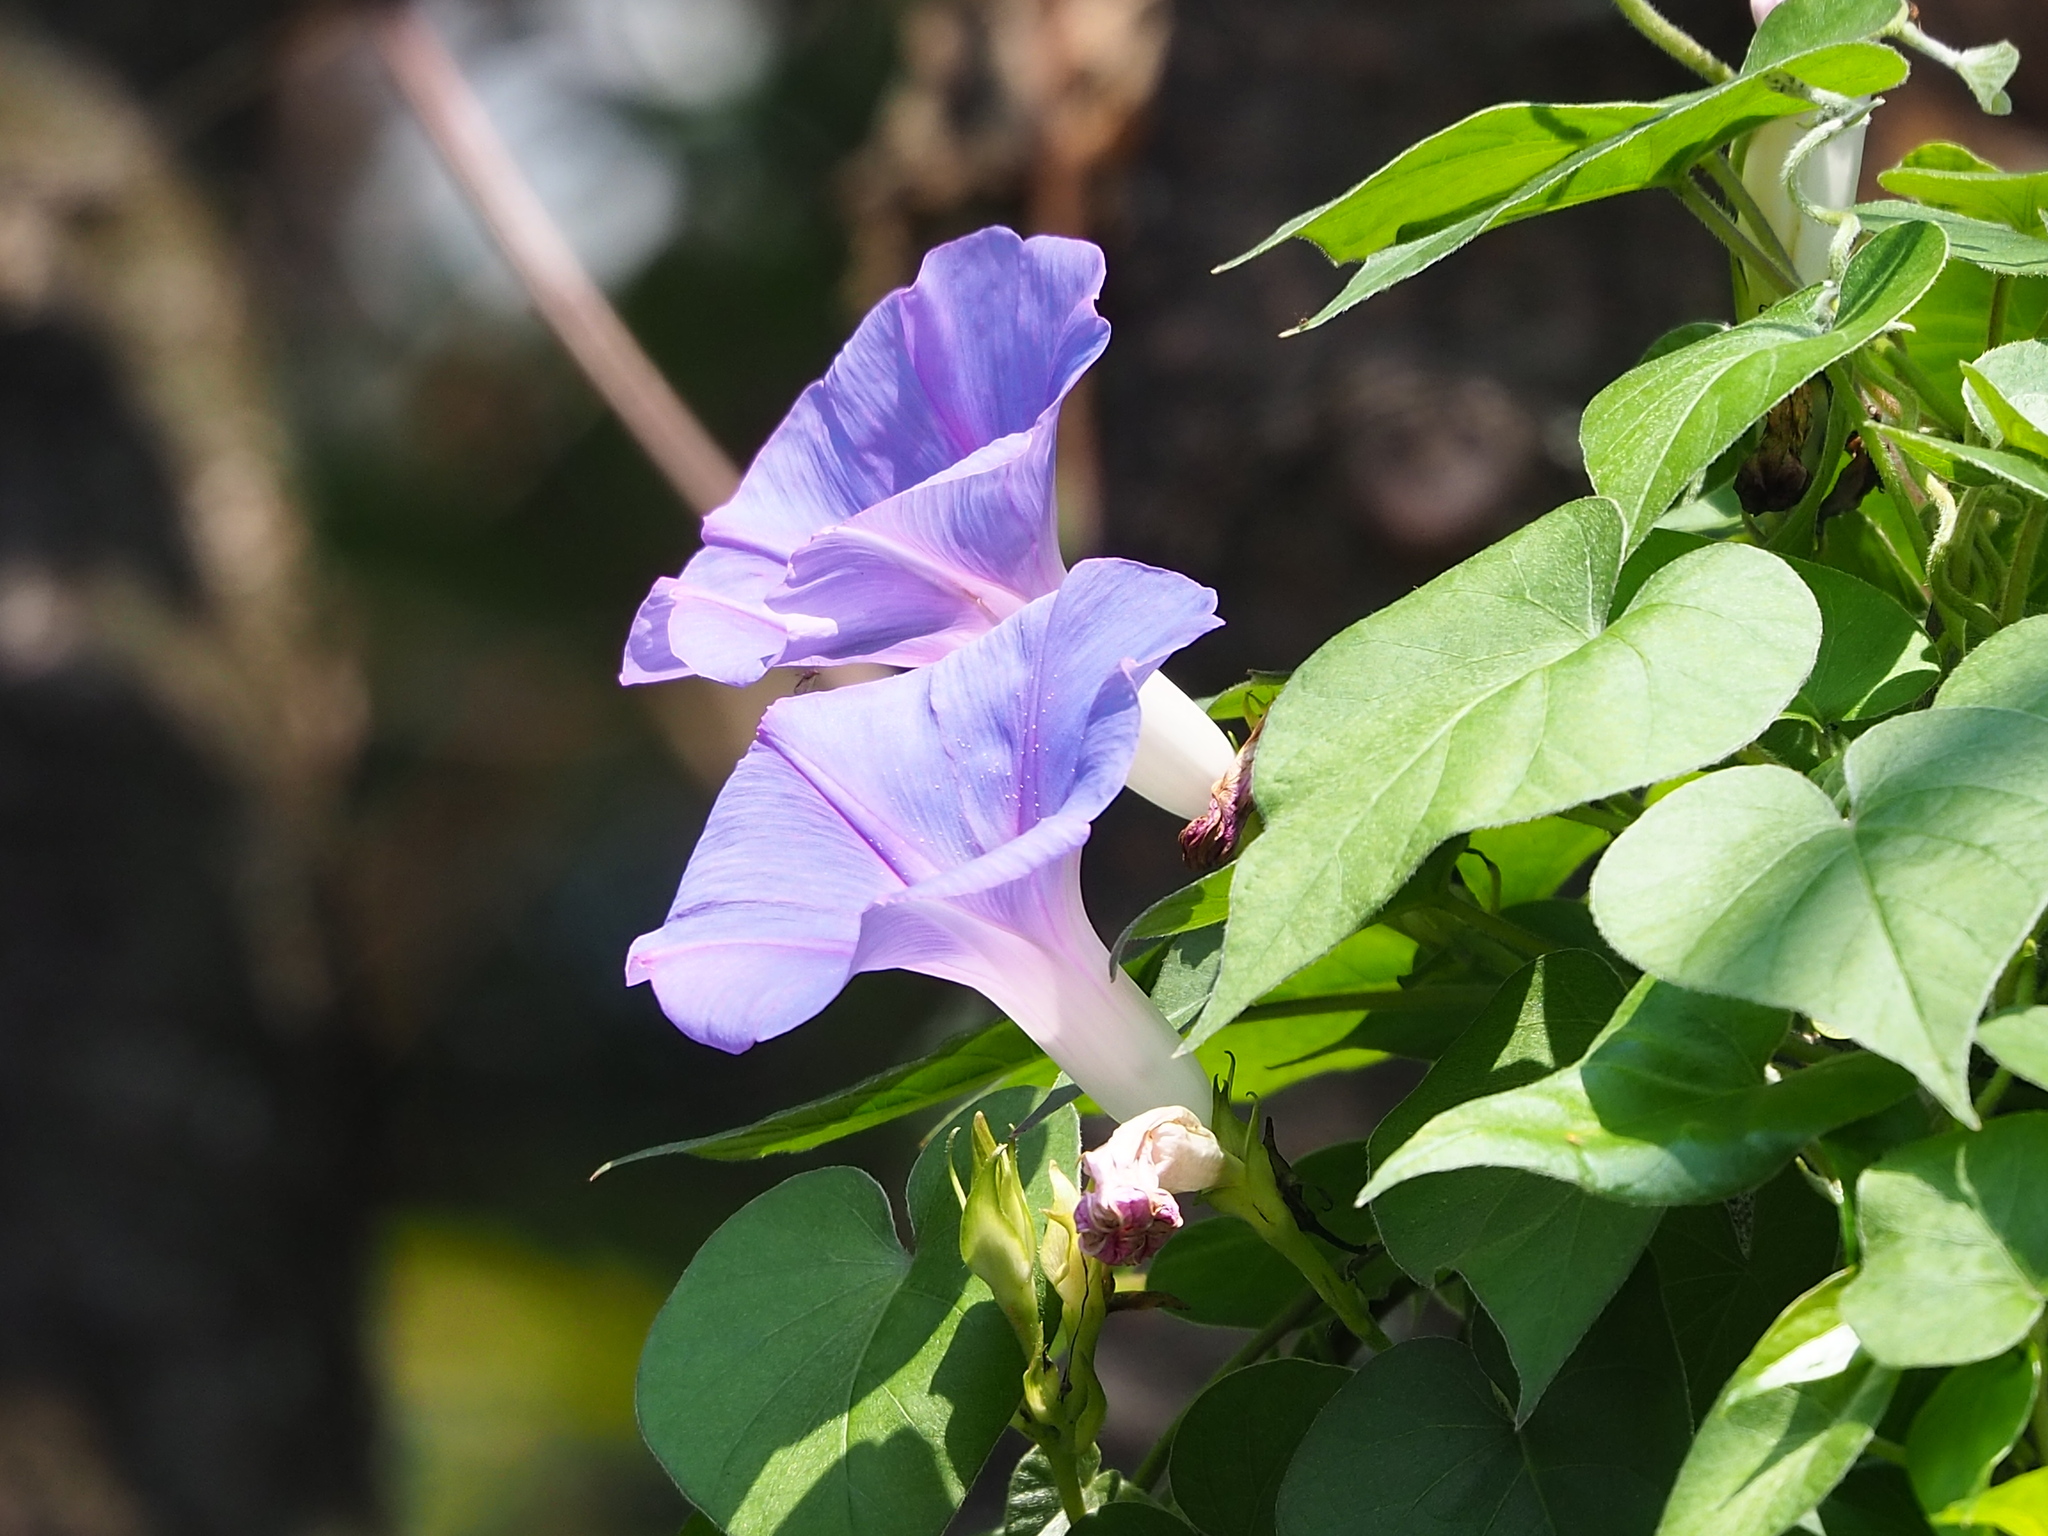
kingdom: Plantae
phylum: Tracheophyta
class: Magnoliopsida
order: Solanales
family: Convolvulaceae
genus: Ipomoea
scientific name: Ipomoea indica
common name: Blue dawnflower
